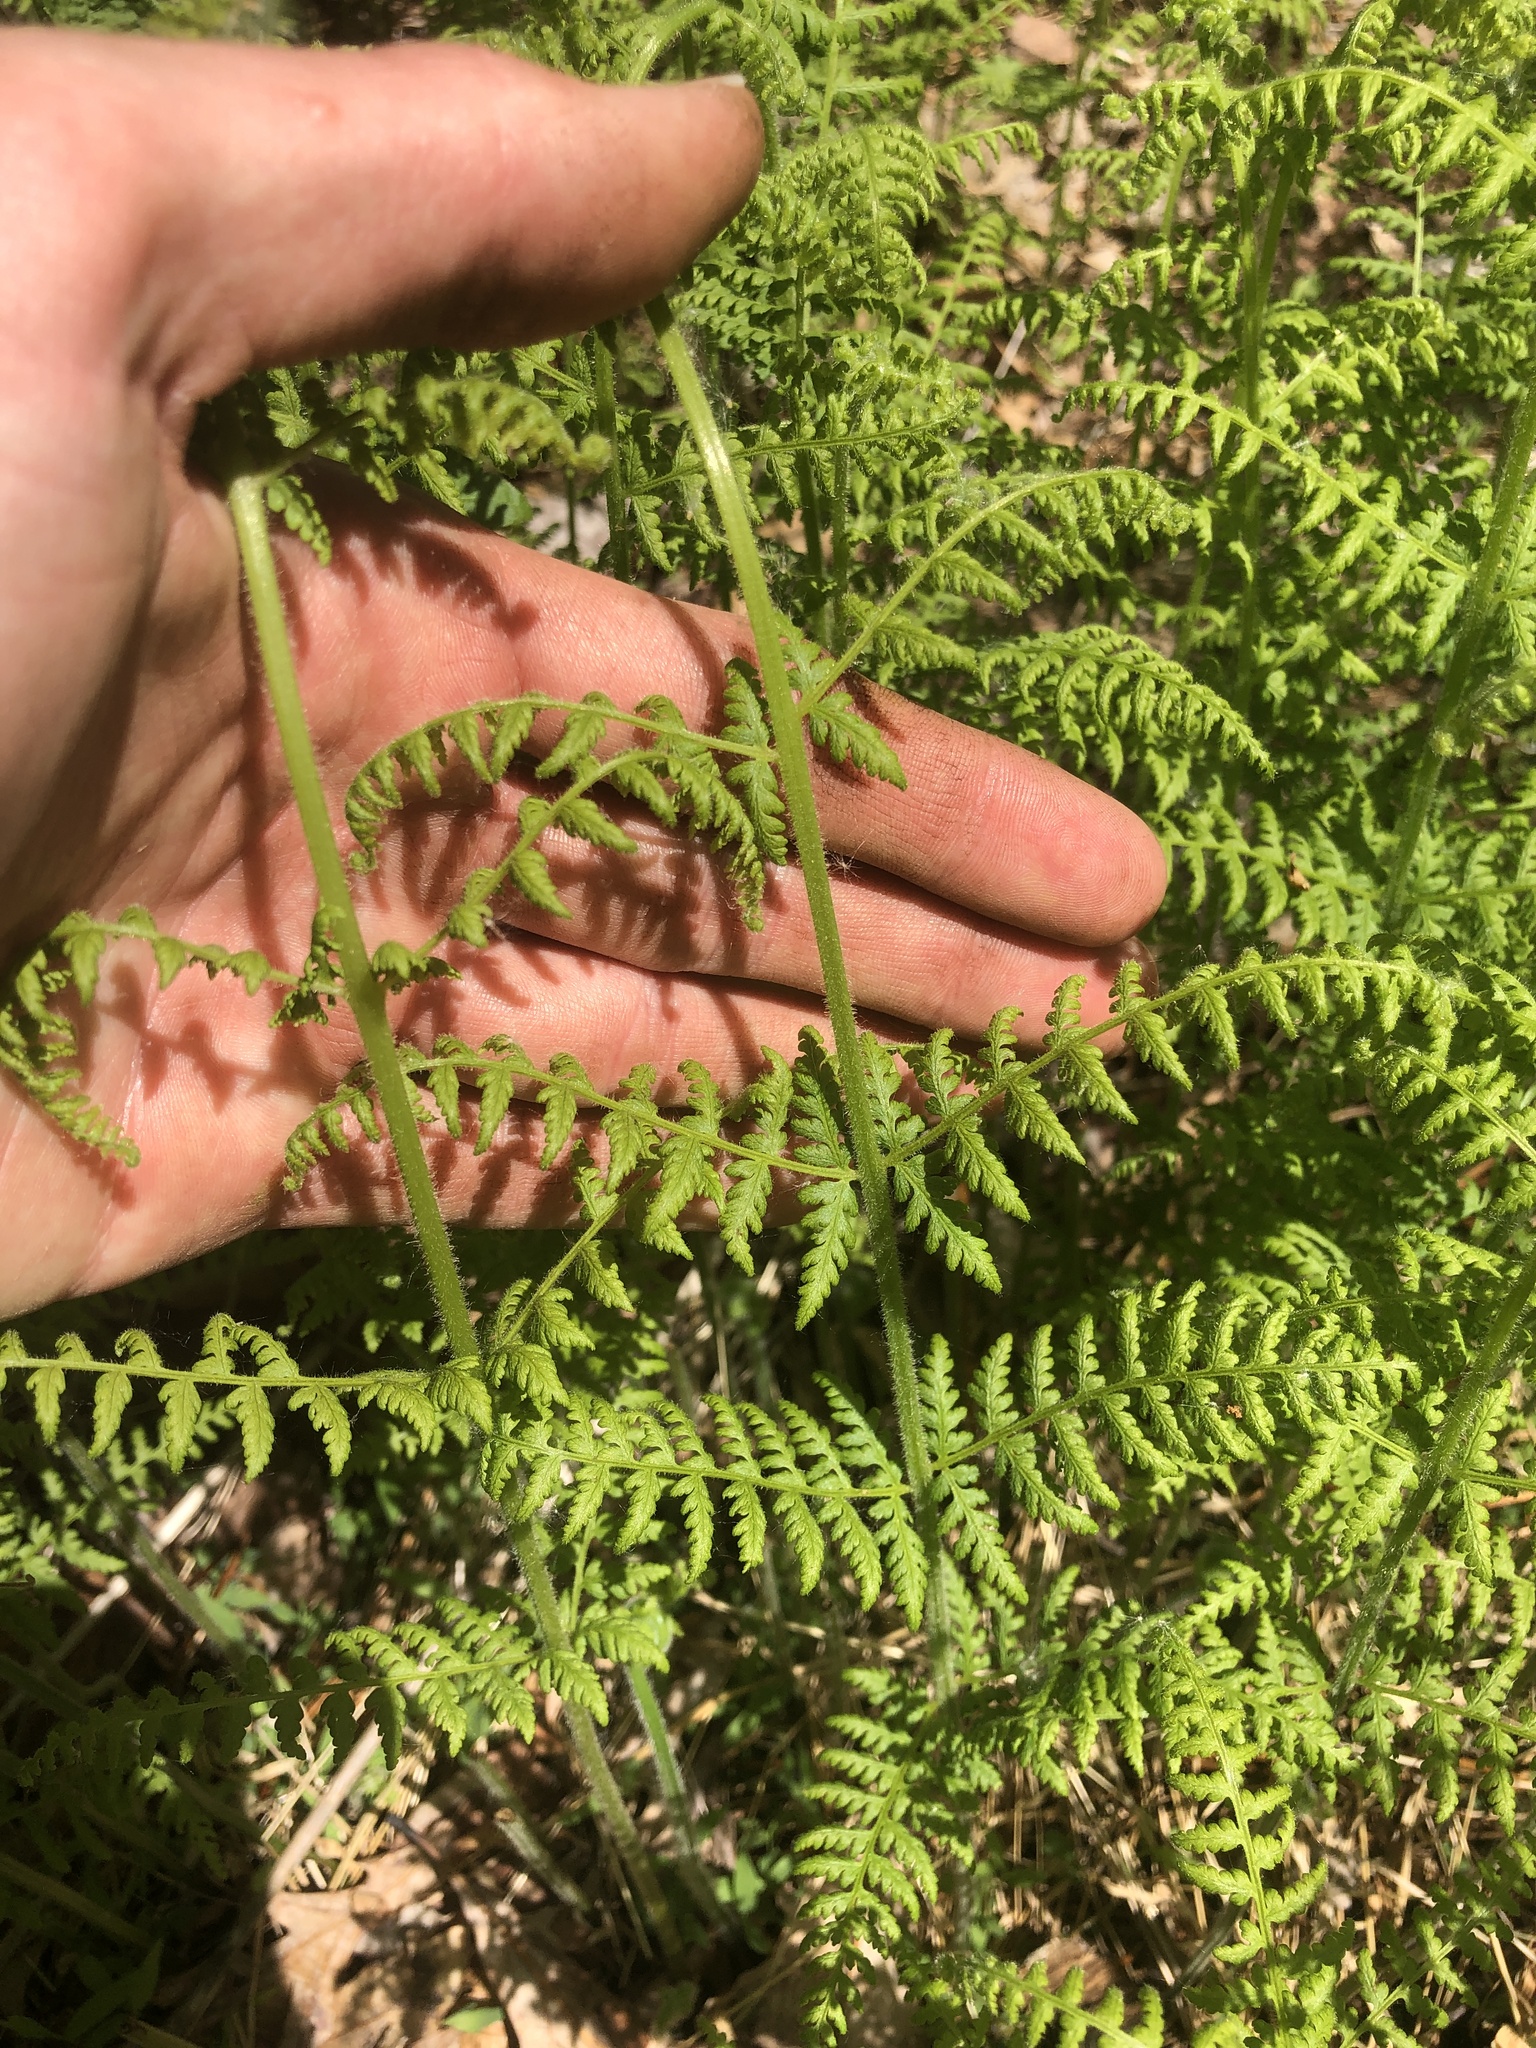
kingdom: Plantae
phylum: Tracheophyta
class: Polypodiopsida
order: Polypodiales
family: Dennstaedtiaceae
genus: Sitobolium
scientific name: Sitobolium punctilobum
